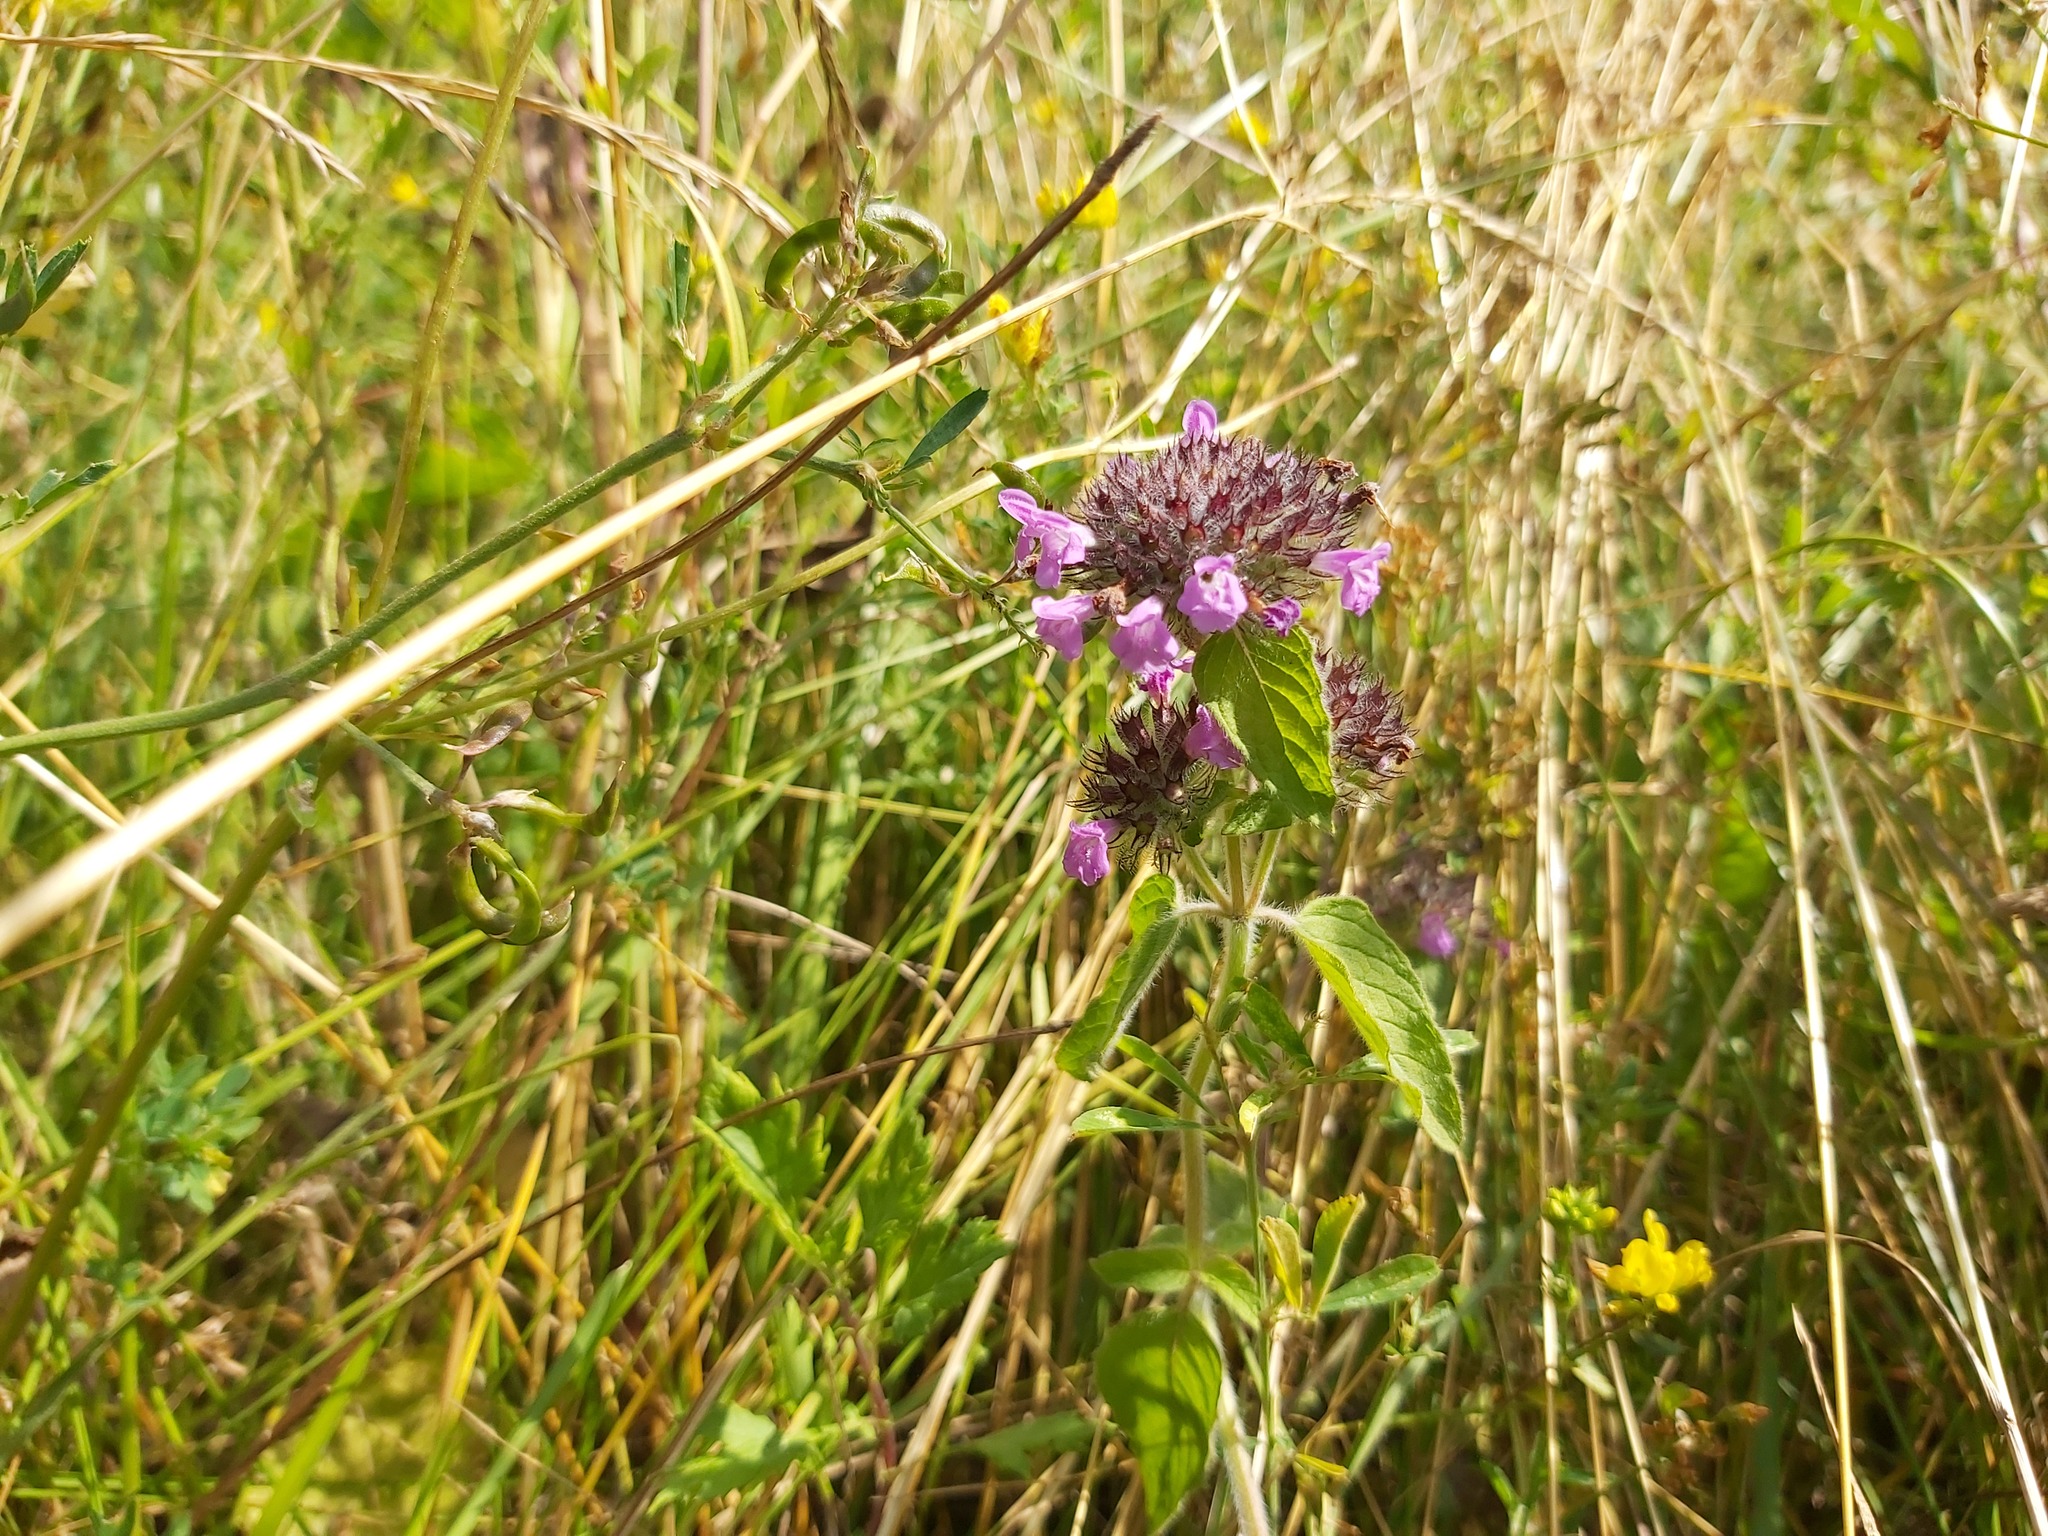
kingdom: Plantae
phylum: Tracheophyta
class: Magnoliopsida
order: Lamiales
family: Lamiaceae
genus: Clinopodium
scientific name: Clinopodium vulgare
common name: Wild basil
